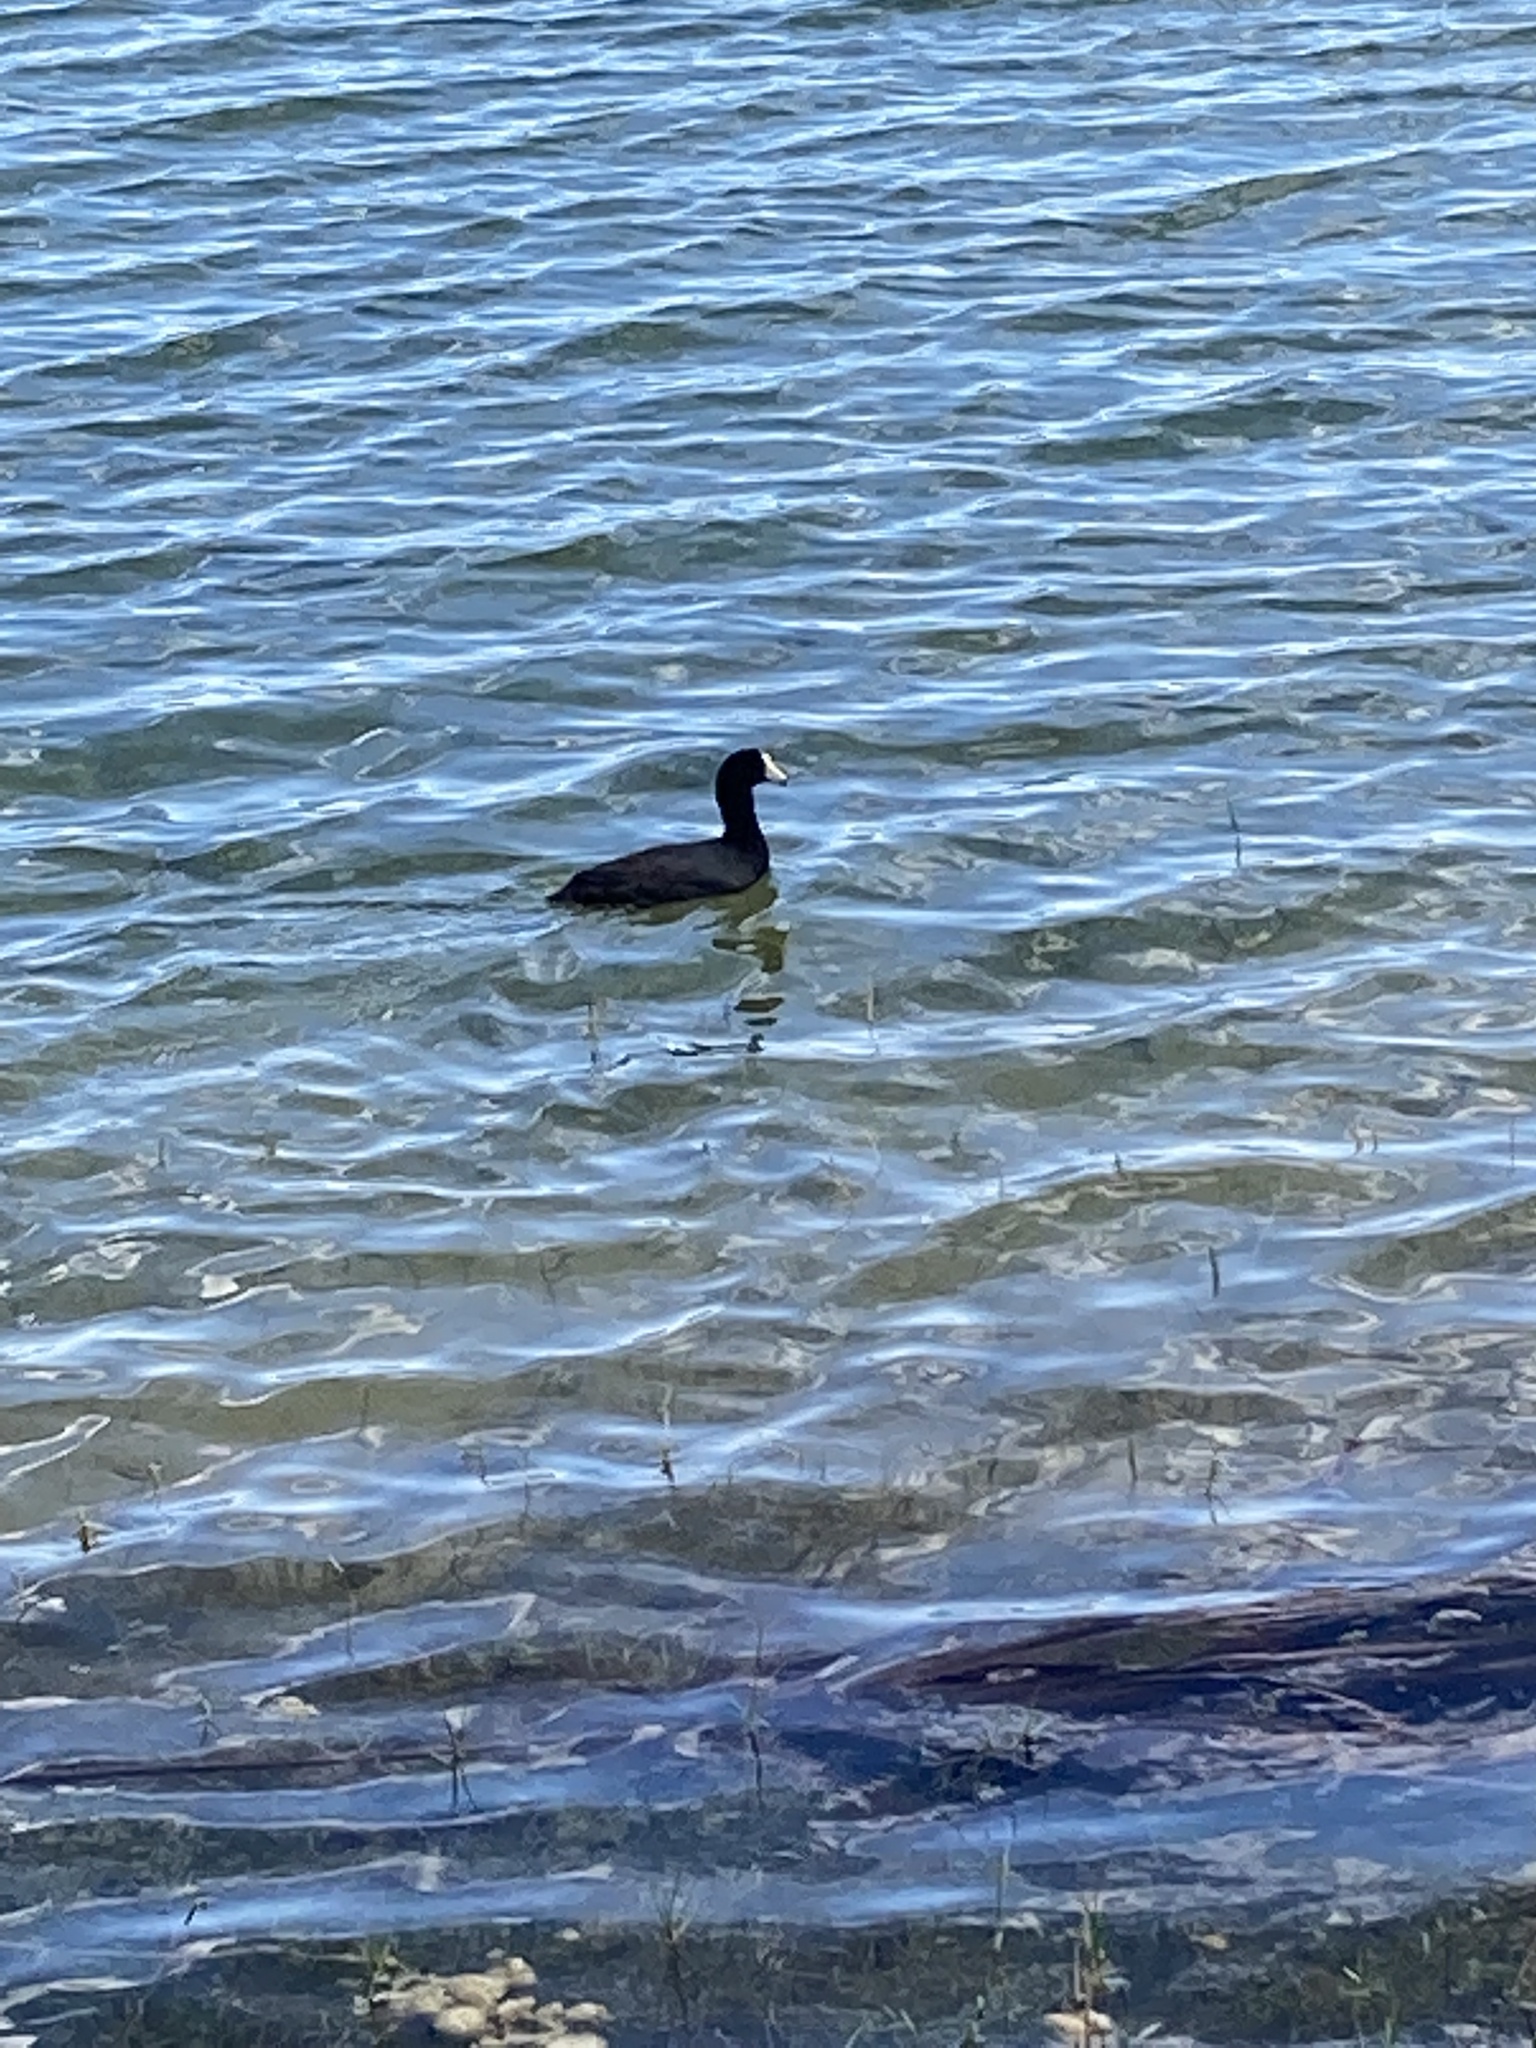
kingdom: Animalia
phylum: Chordata
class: Aves
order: Gruiformes
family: Rallidae
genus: Fulica
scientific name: Fulica americana
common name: American coot
